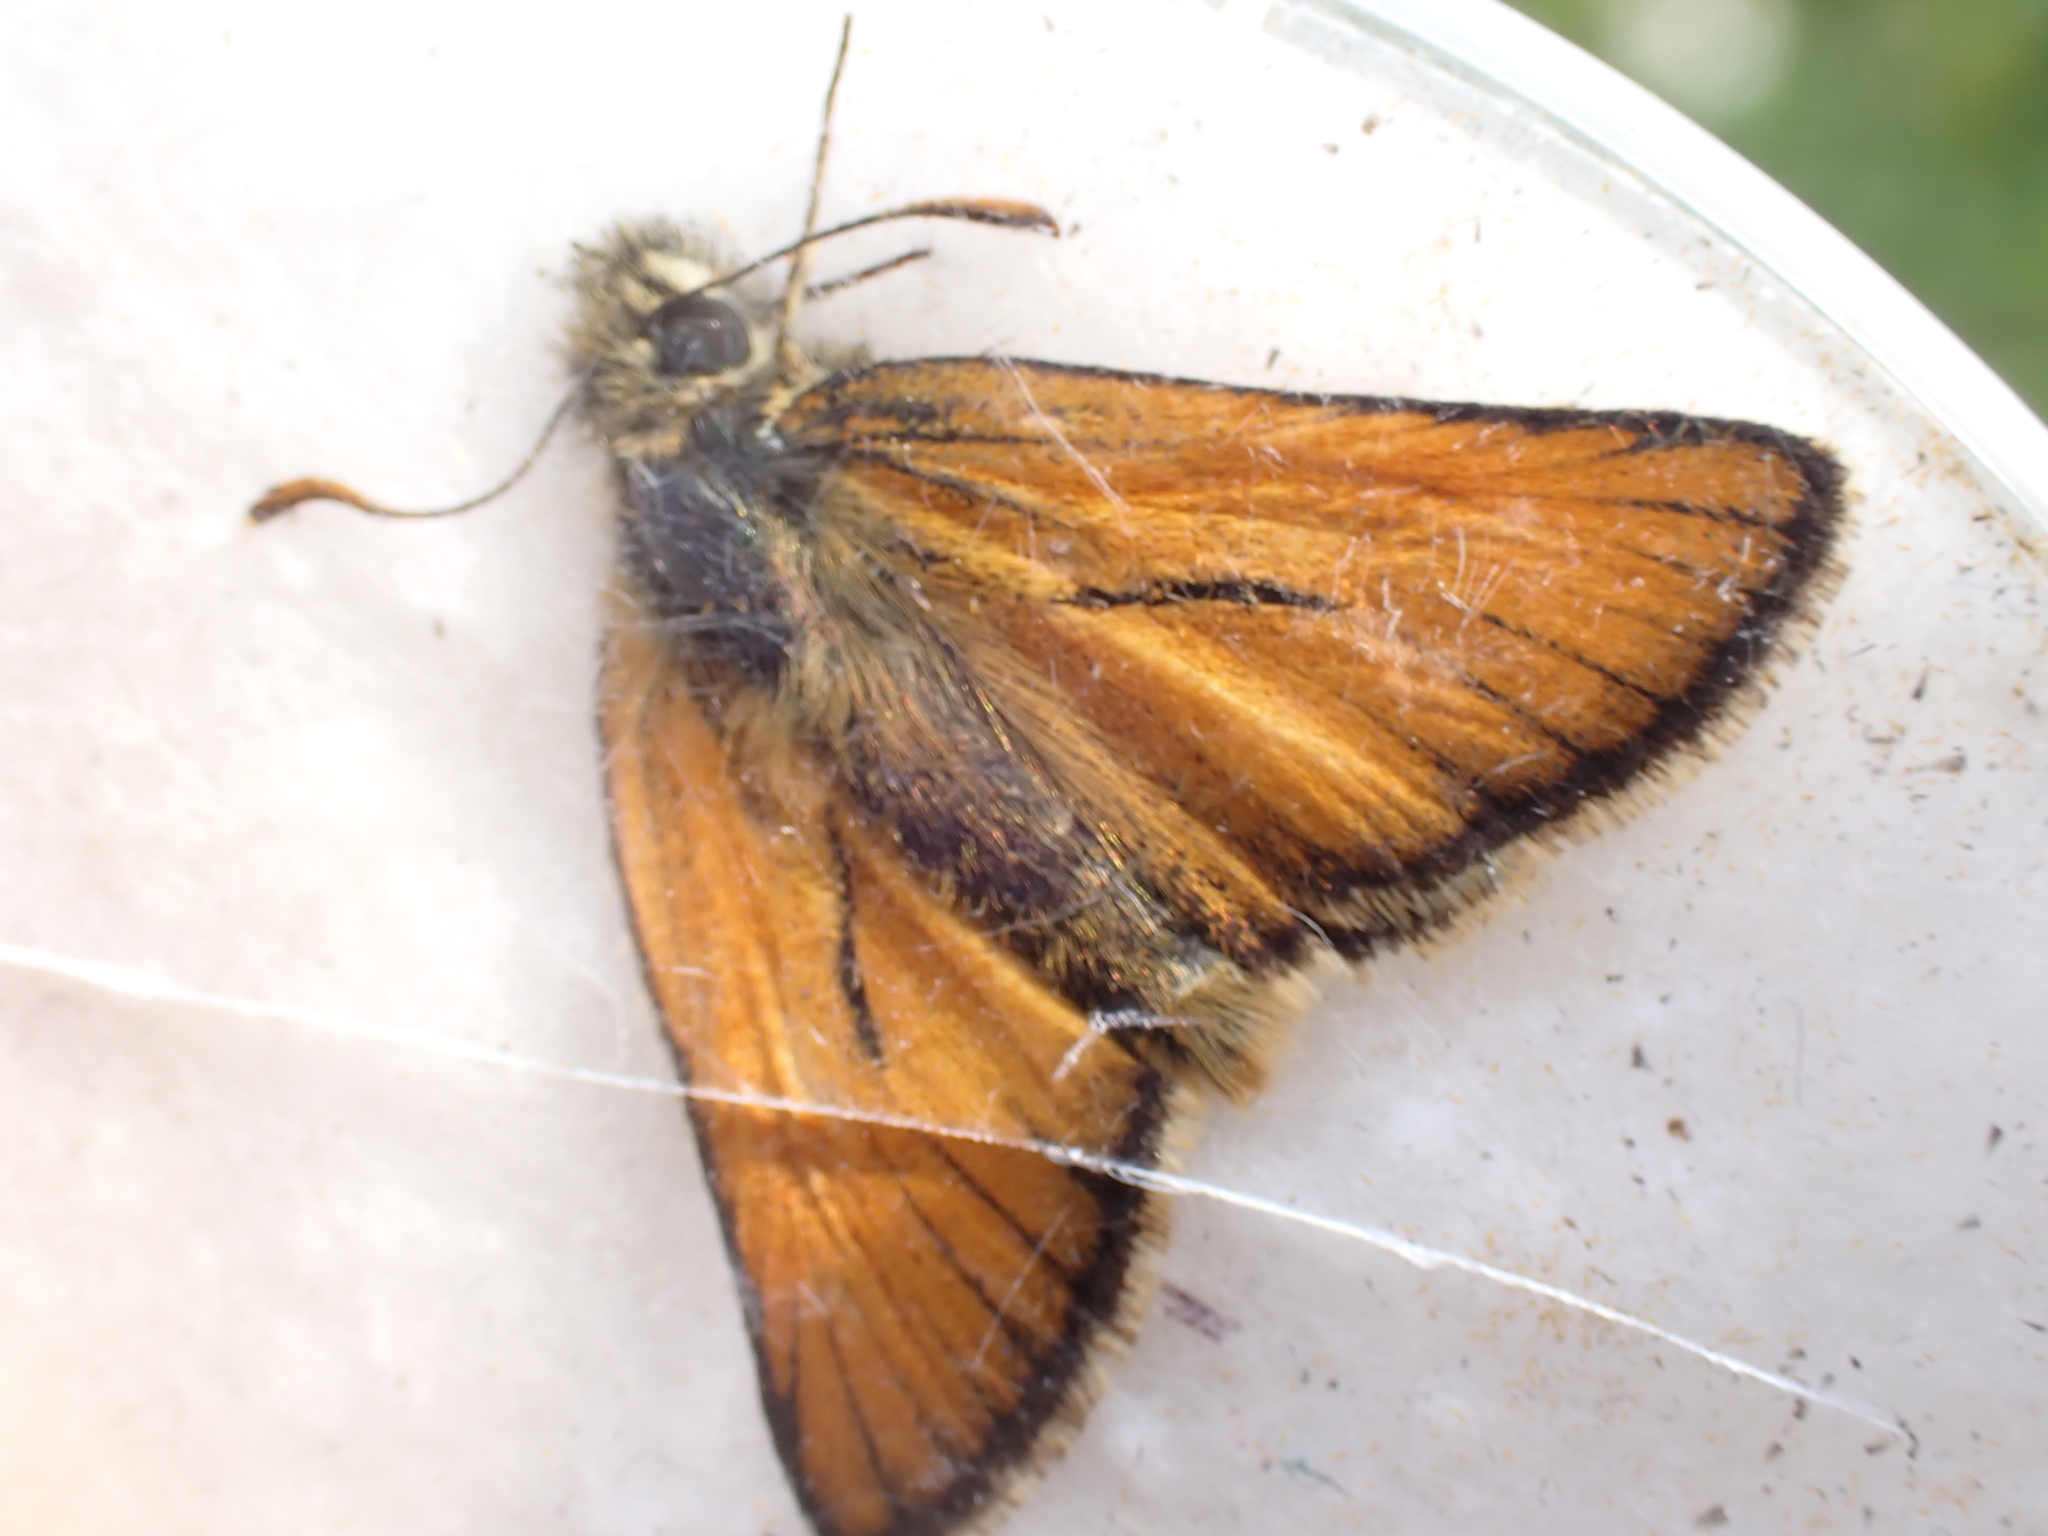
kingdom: Animalia
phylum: Arthropoda
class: Insecta
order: Lepidoptera
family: Hesperiidae
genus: Thymelicus
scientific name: Thymelicus sylvestris
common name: Small skipper
